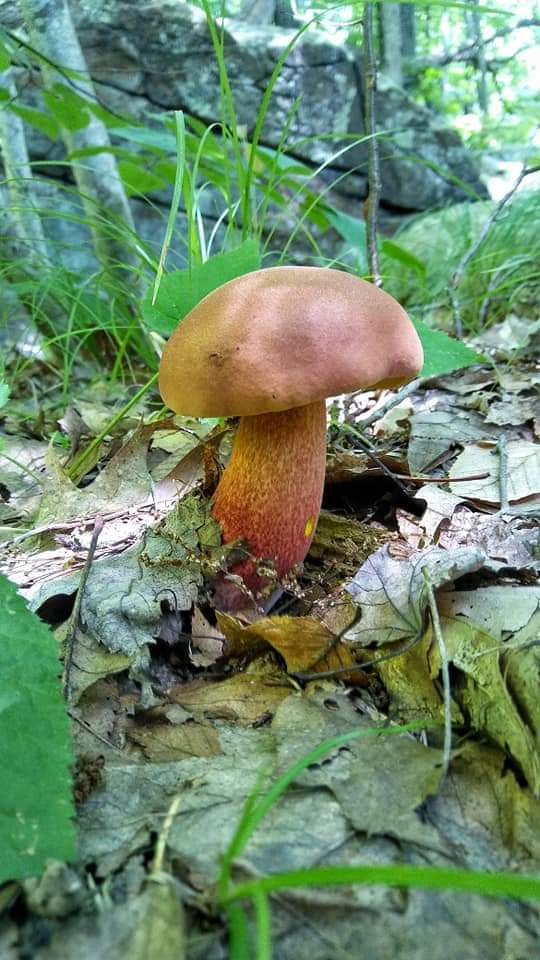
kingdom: Fungi
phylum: Basidiomycota
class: Agaricomycetes
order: Boletales
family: Boletaceae
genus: Baorangia
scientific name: Baorangia bicolor
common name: Two-colored bolete
